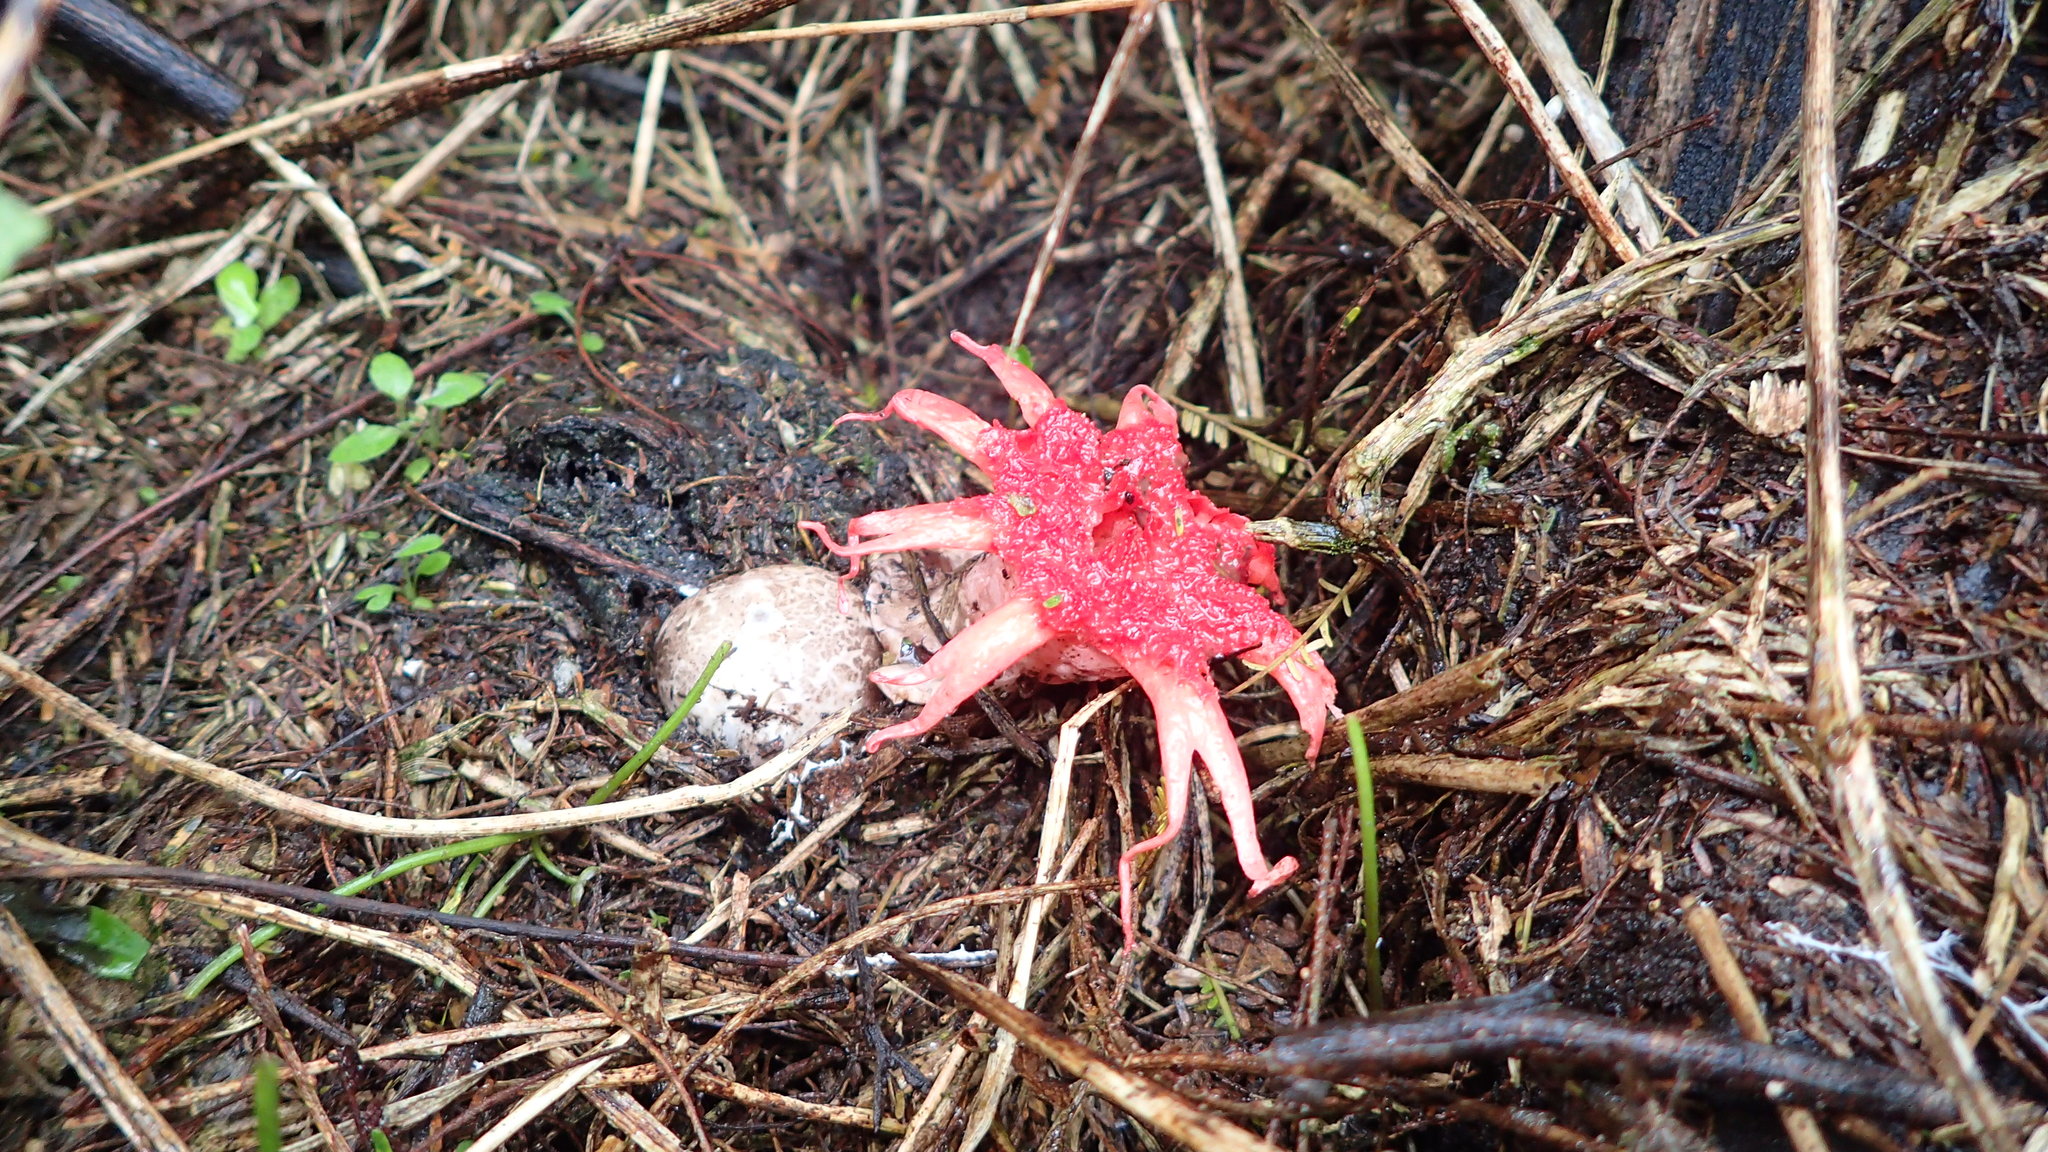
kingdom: Fungi
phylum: Basidiomycota
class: Agaricomycetes
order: Phallales
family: Phallaceae
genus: Aseroe
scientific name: Aseroe rubra
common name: Starfish fungus
